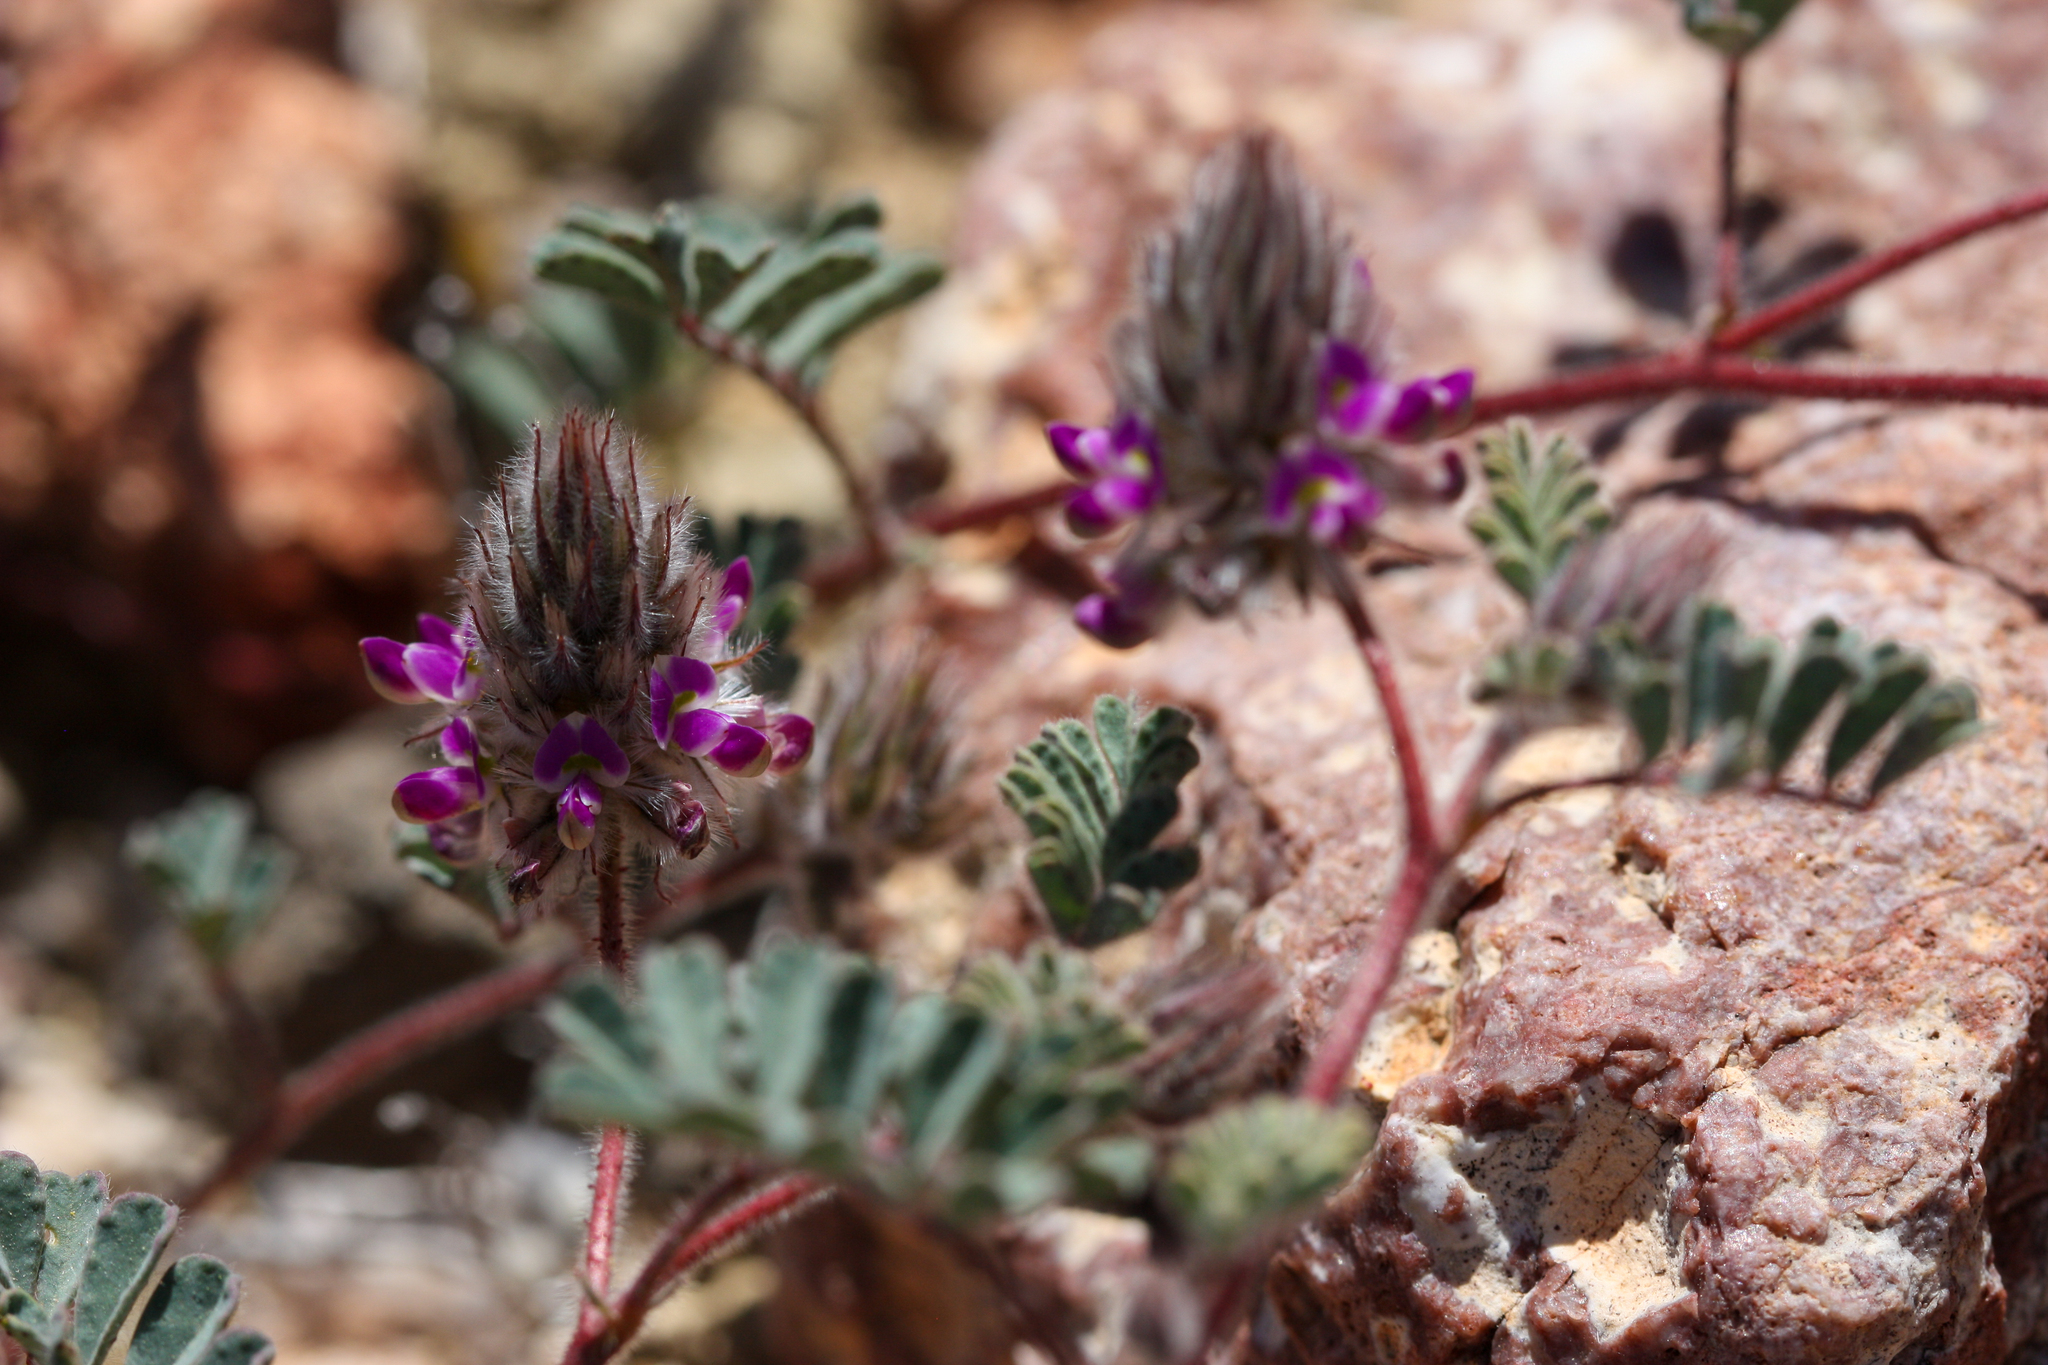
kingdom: Plantae
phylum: Tracheophyta
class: Magnoliopsida
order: Fabales
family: Fabaceae
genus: Dalea
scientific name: Dalea mollis
